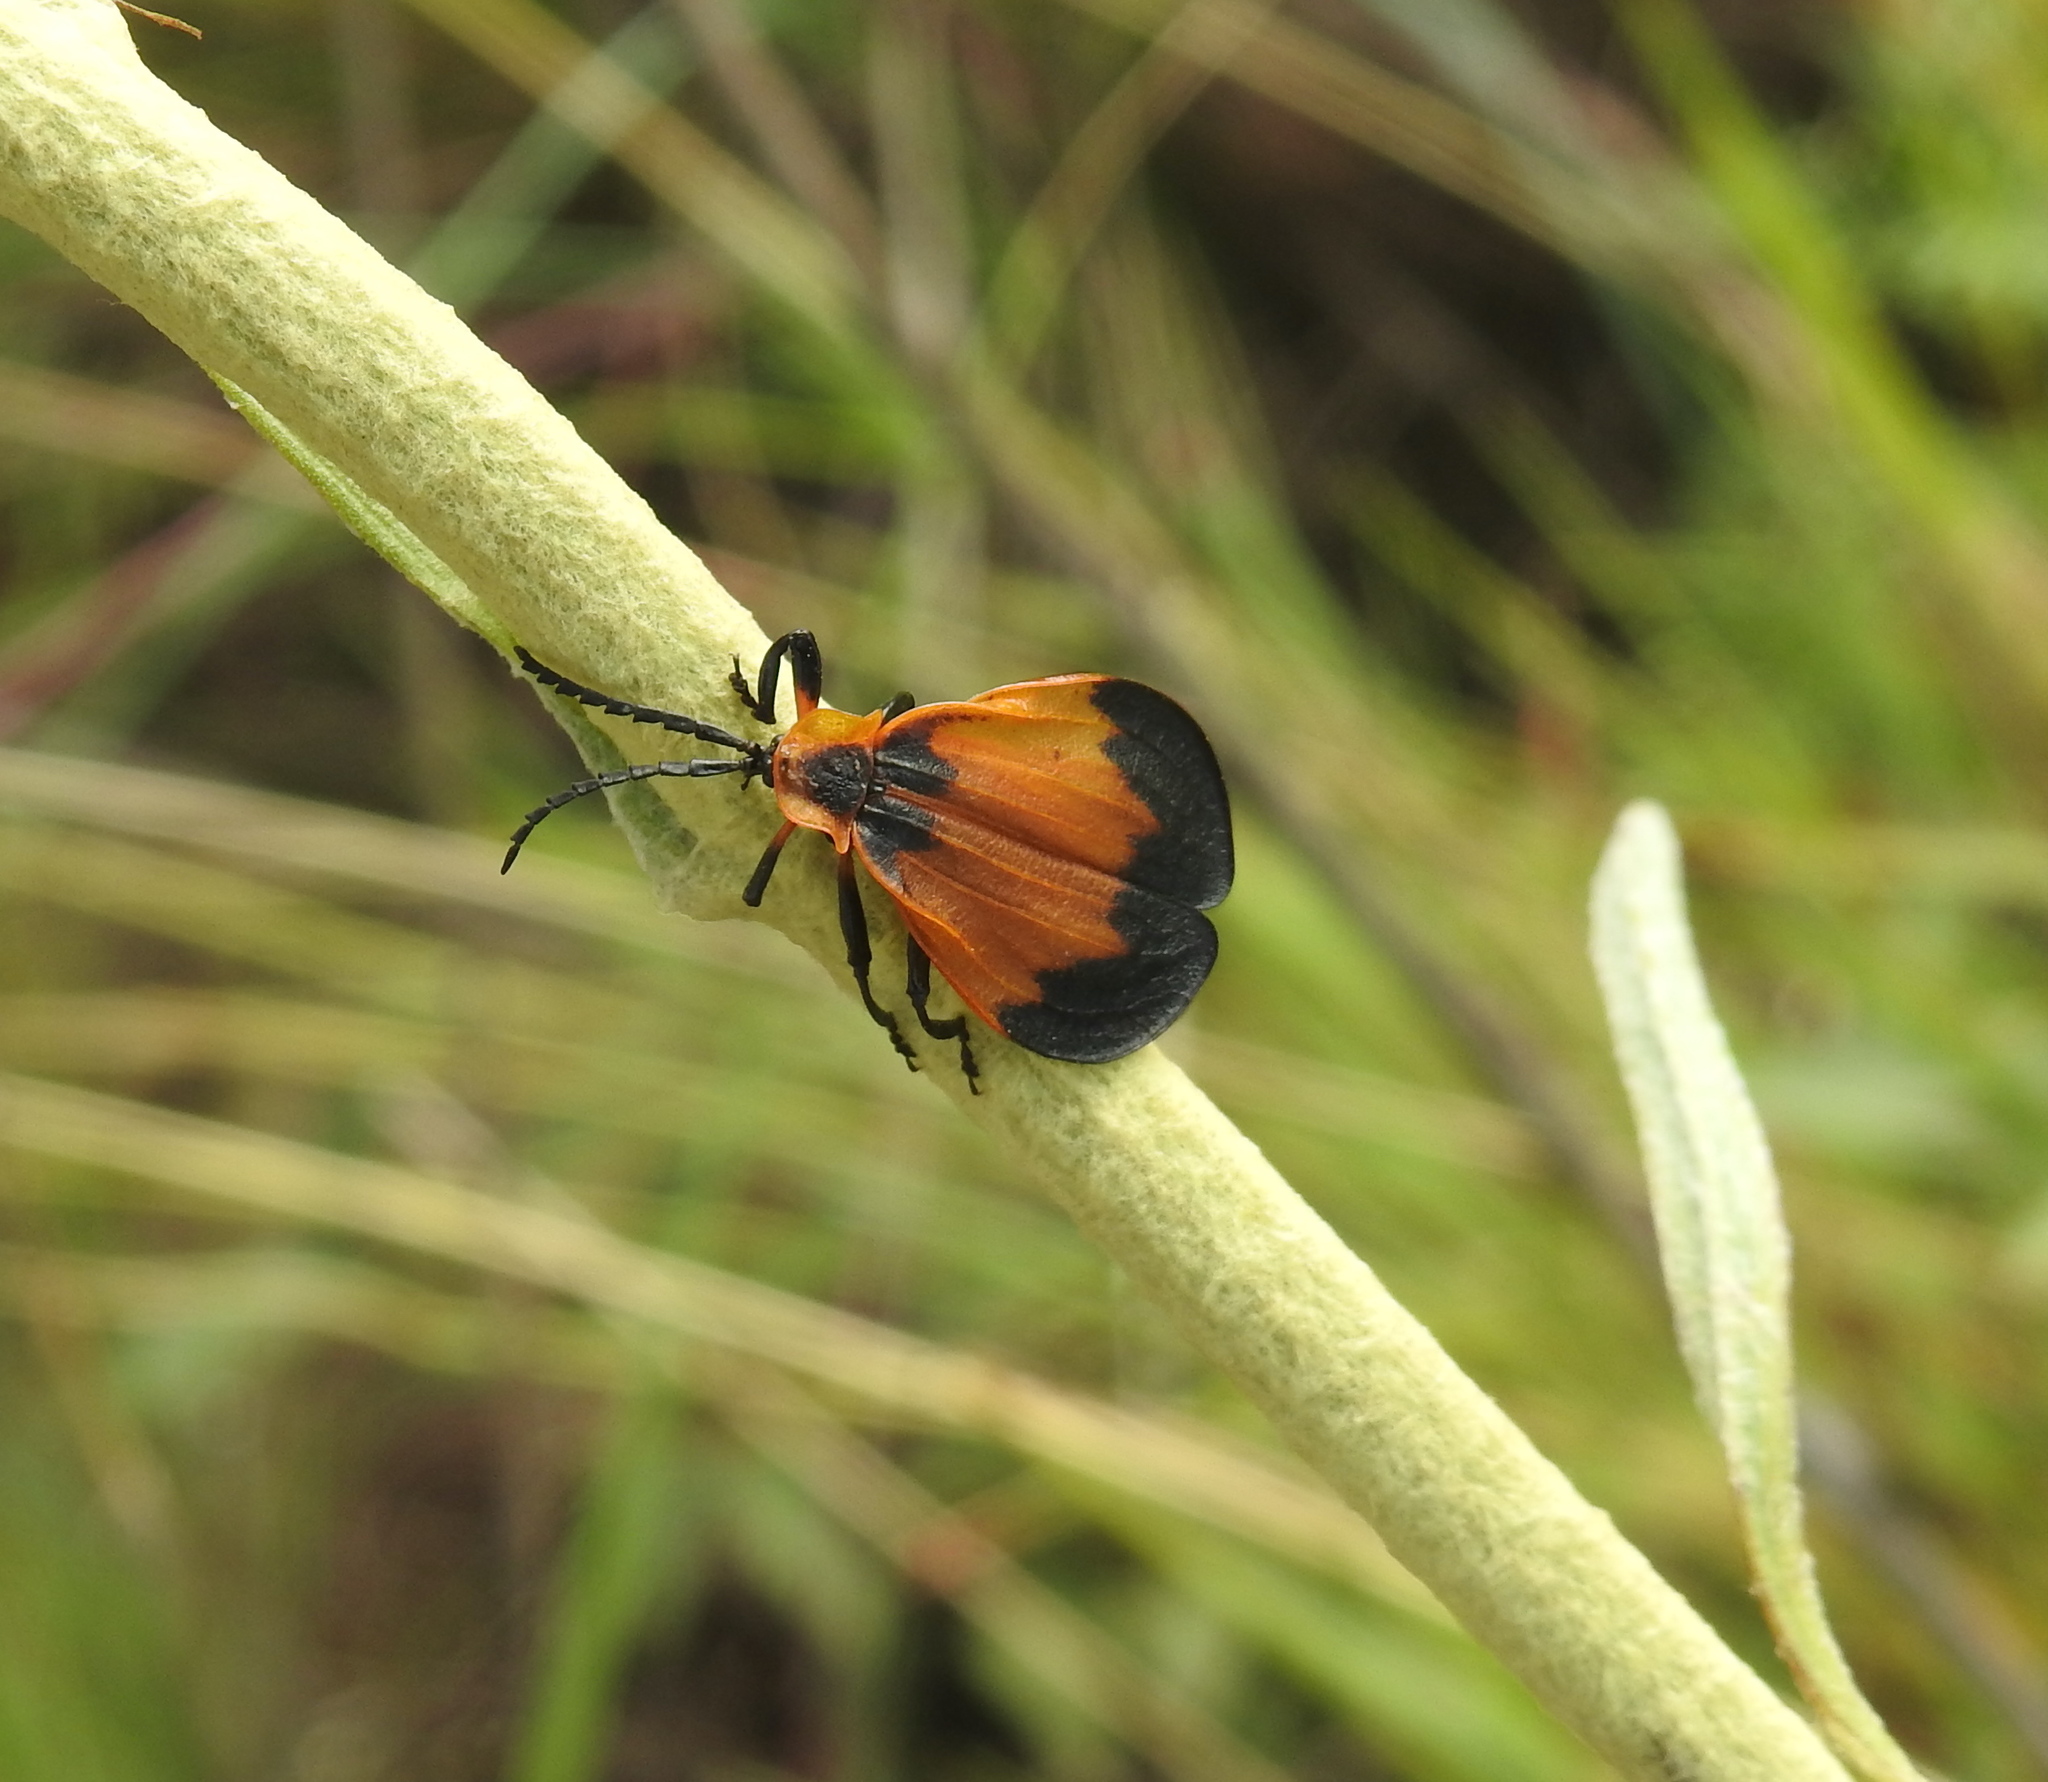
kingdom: Animalia
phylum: Arthropoda
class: Insecta
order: Coleoptera
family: Lycidae
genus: Lycus
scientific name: Lycus
